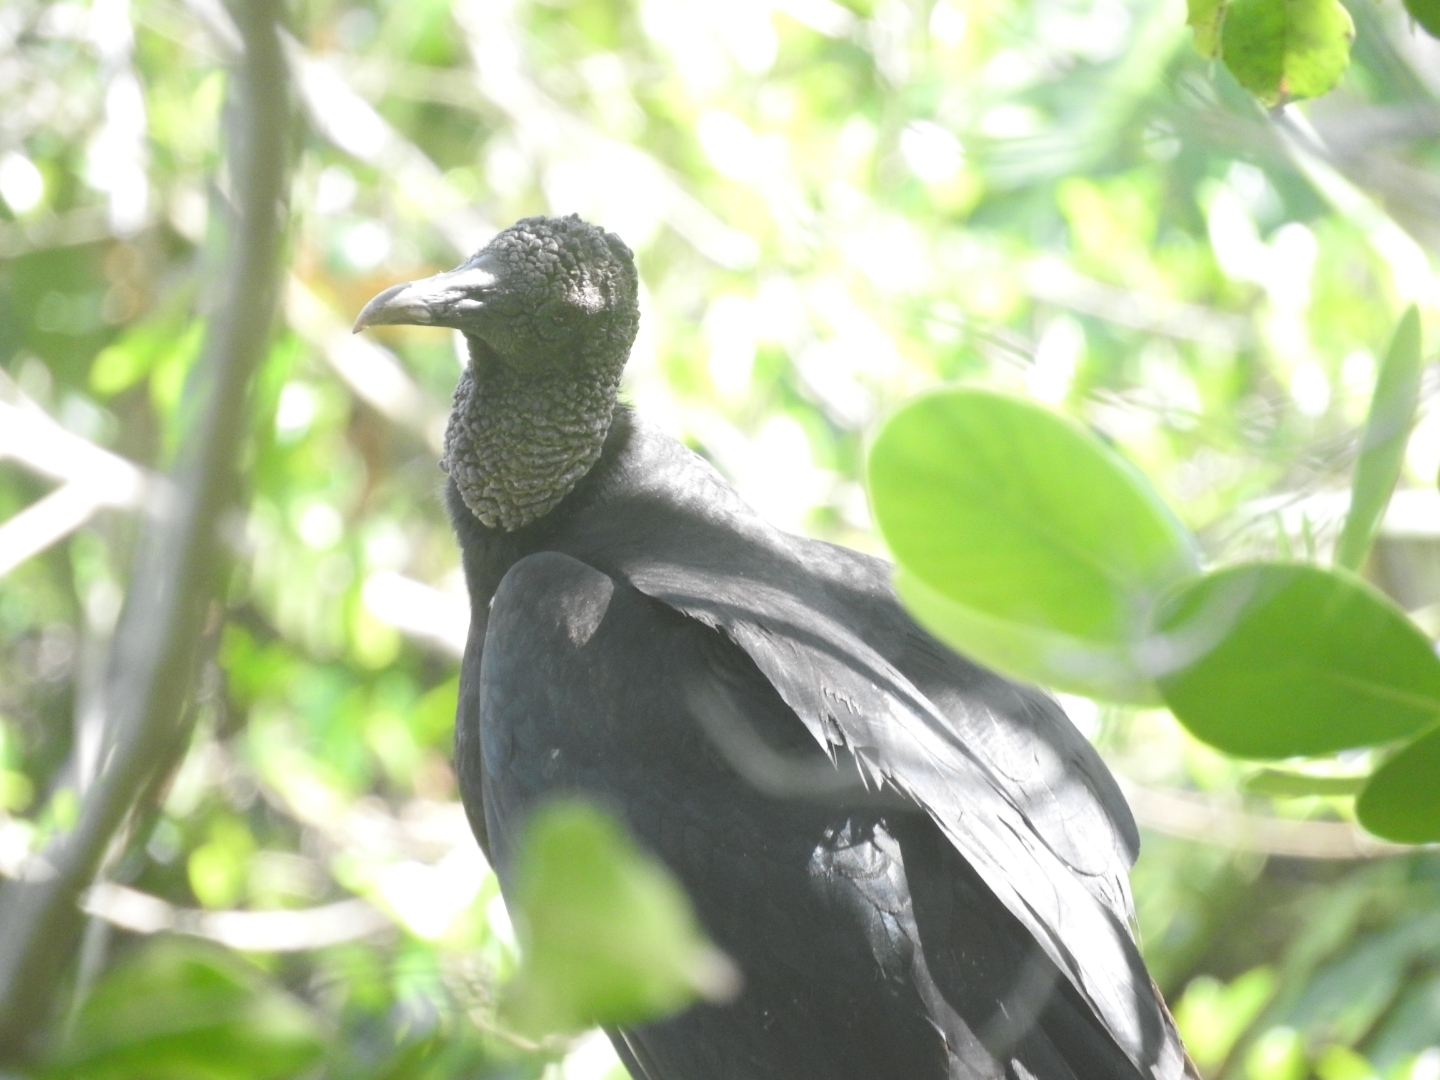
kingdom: Animalia
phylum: Chordata
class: Aves
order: Accipitriformes
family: Cathartidae
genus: Coragyps
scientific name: Coragyps atratus
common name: Black vulture
